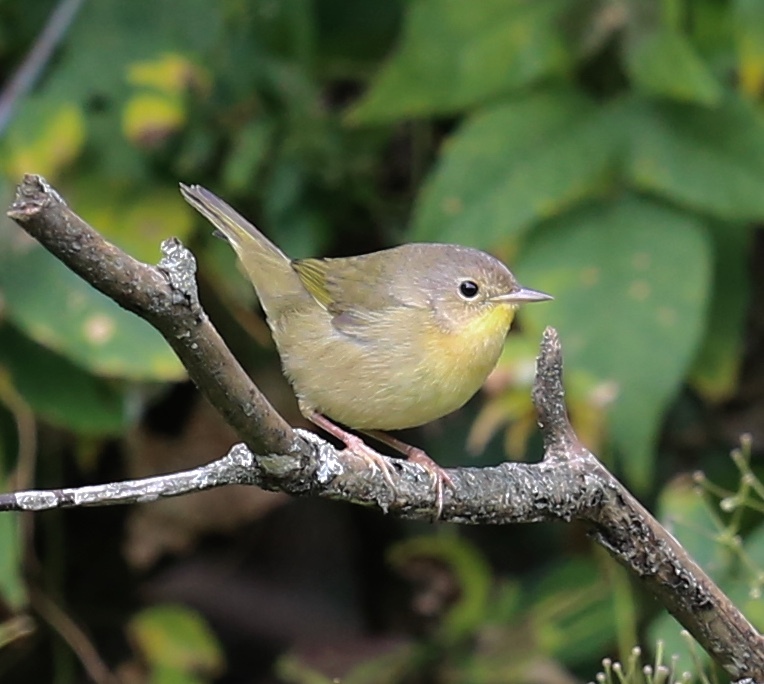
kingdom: Animalia
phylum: Chordata
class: Aves
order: Passeriformes
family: Parulidae
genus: Geothlypis
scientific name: Geothlypis trichas
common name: Common yellowthroat
